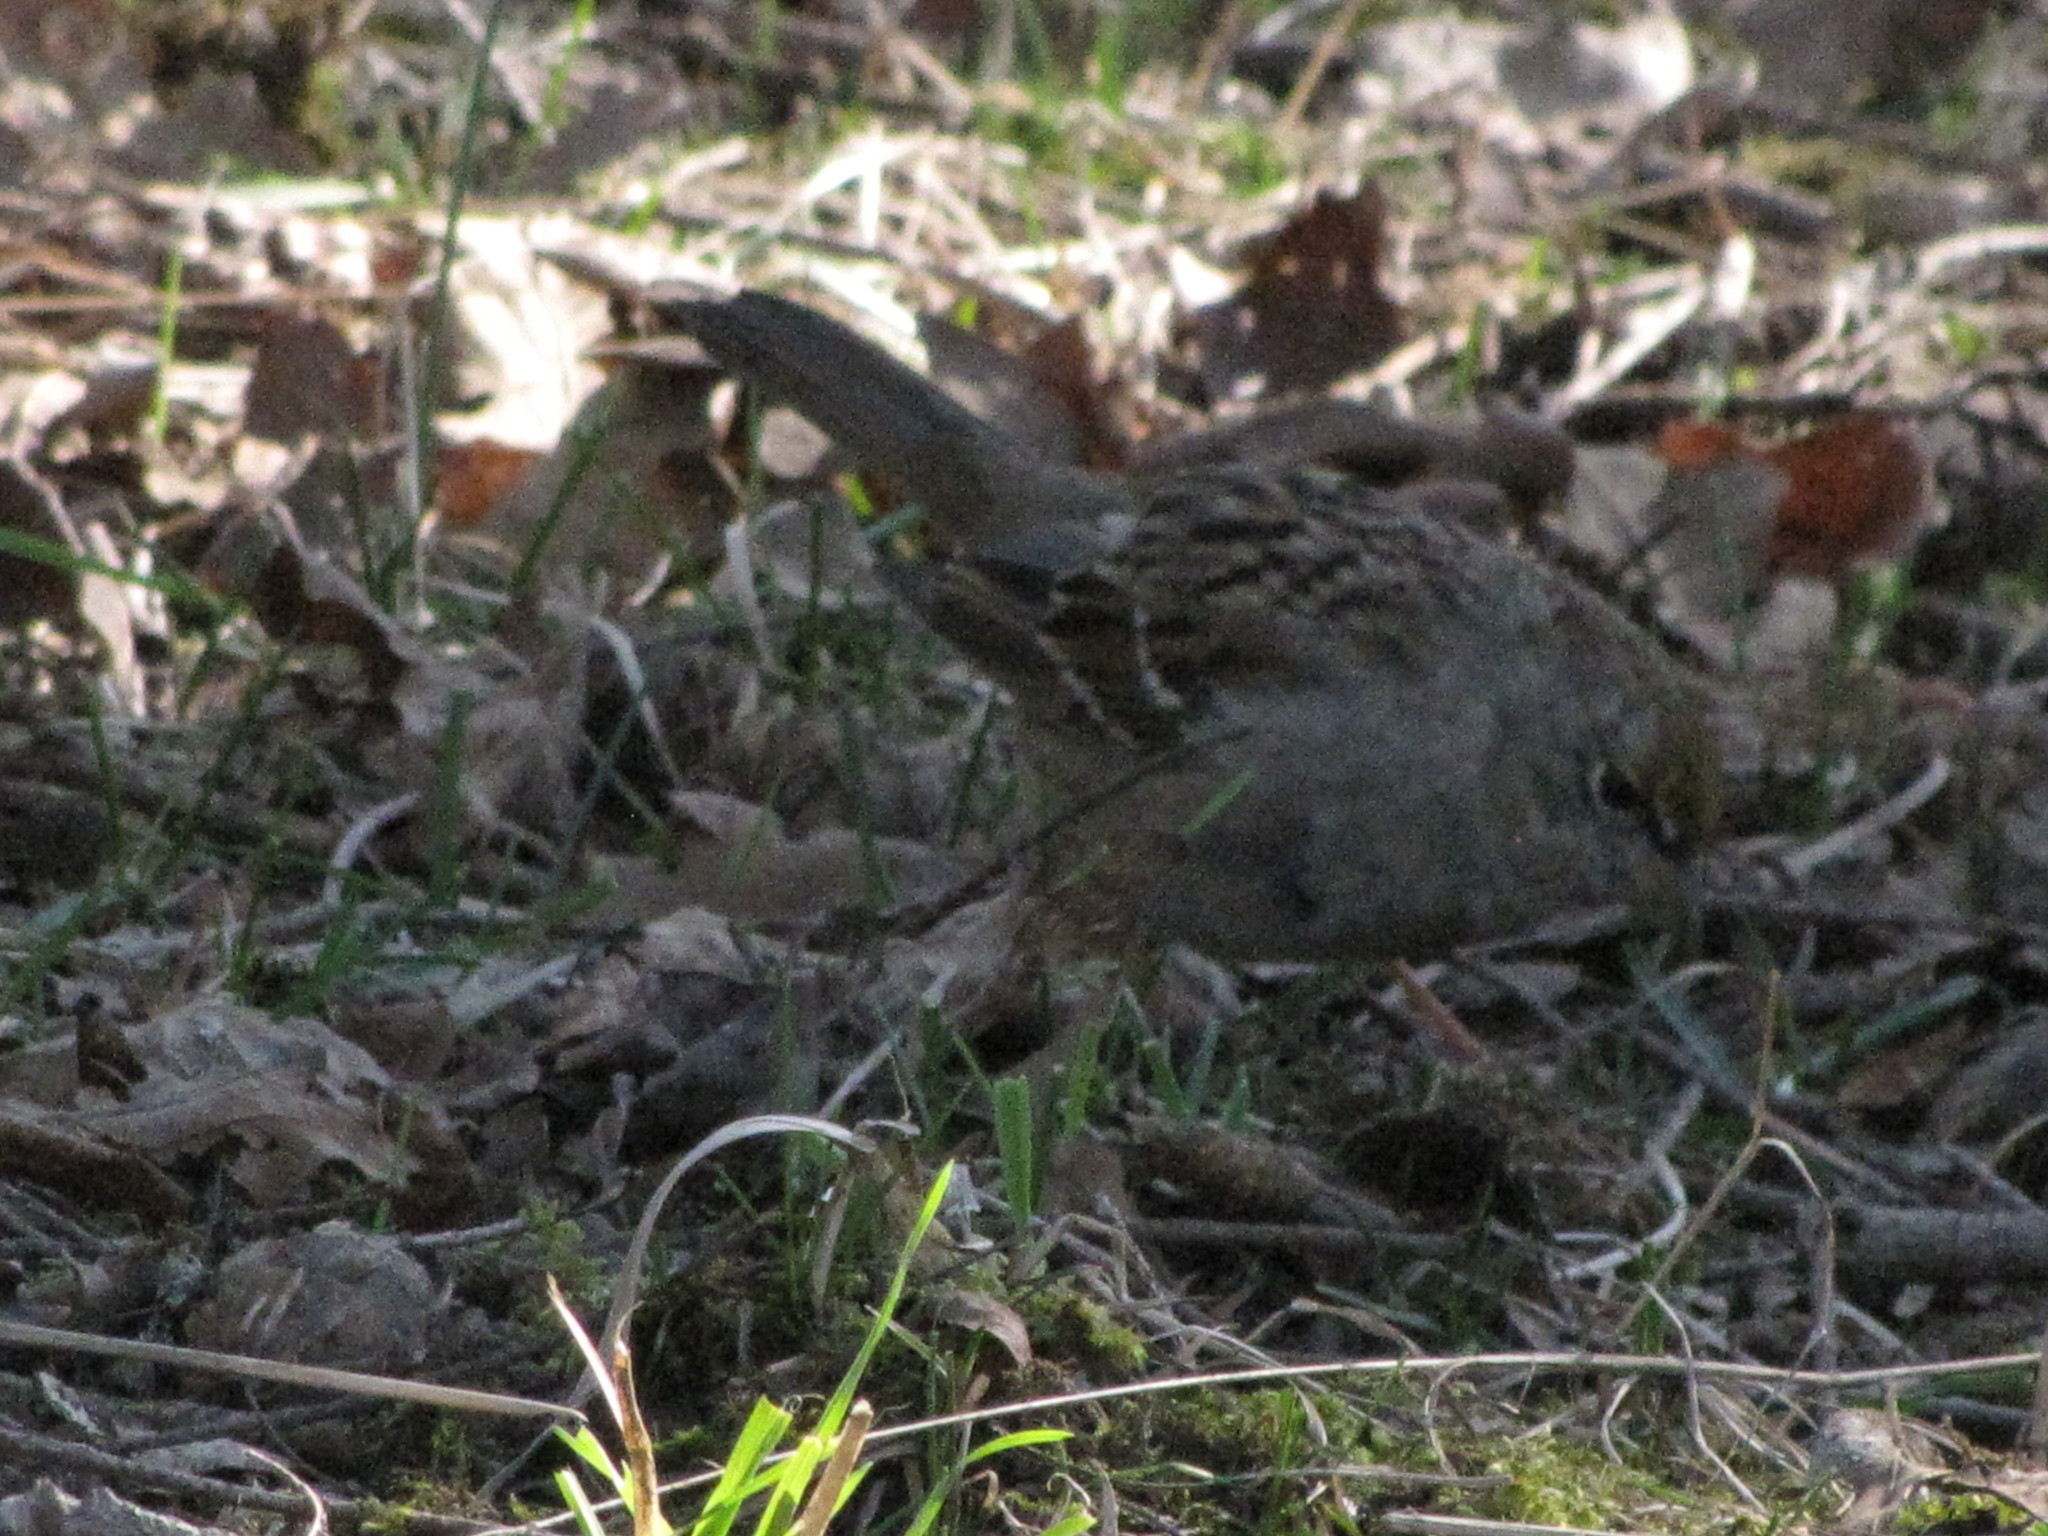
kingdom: Animalia
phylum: Chordata
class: Aves
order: Passeriformes
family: Passerellidae
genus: Zonotrichia
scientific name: Zonotrichia atricapilla
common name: Golden-crowned sparrow
